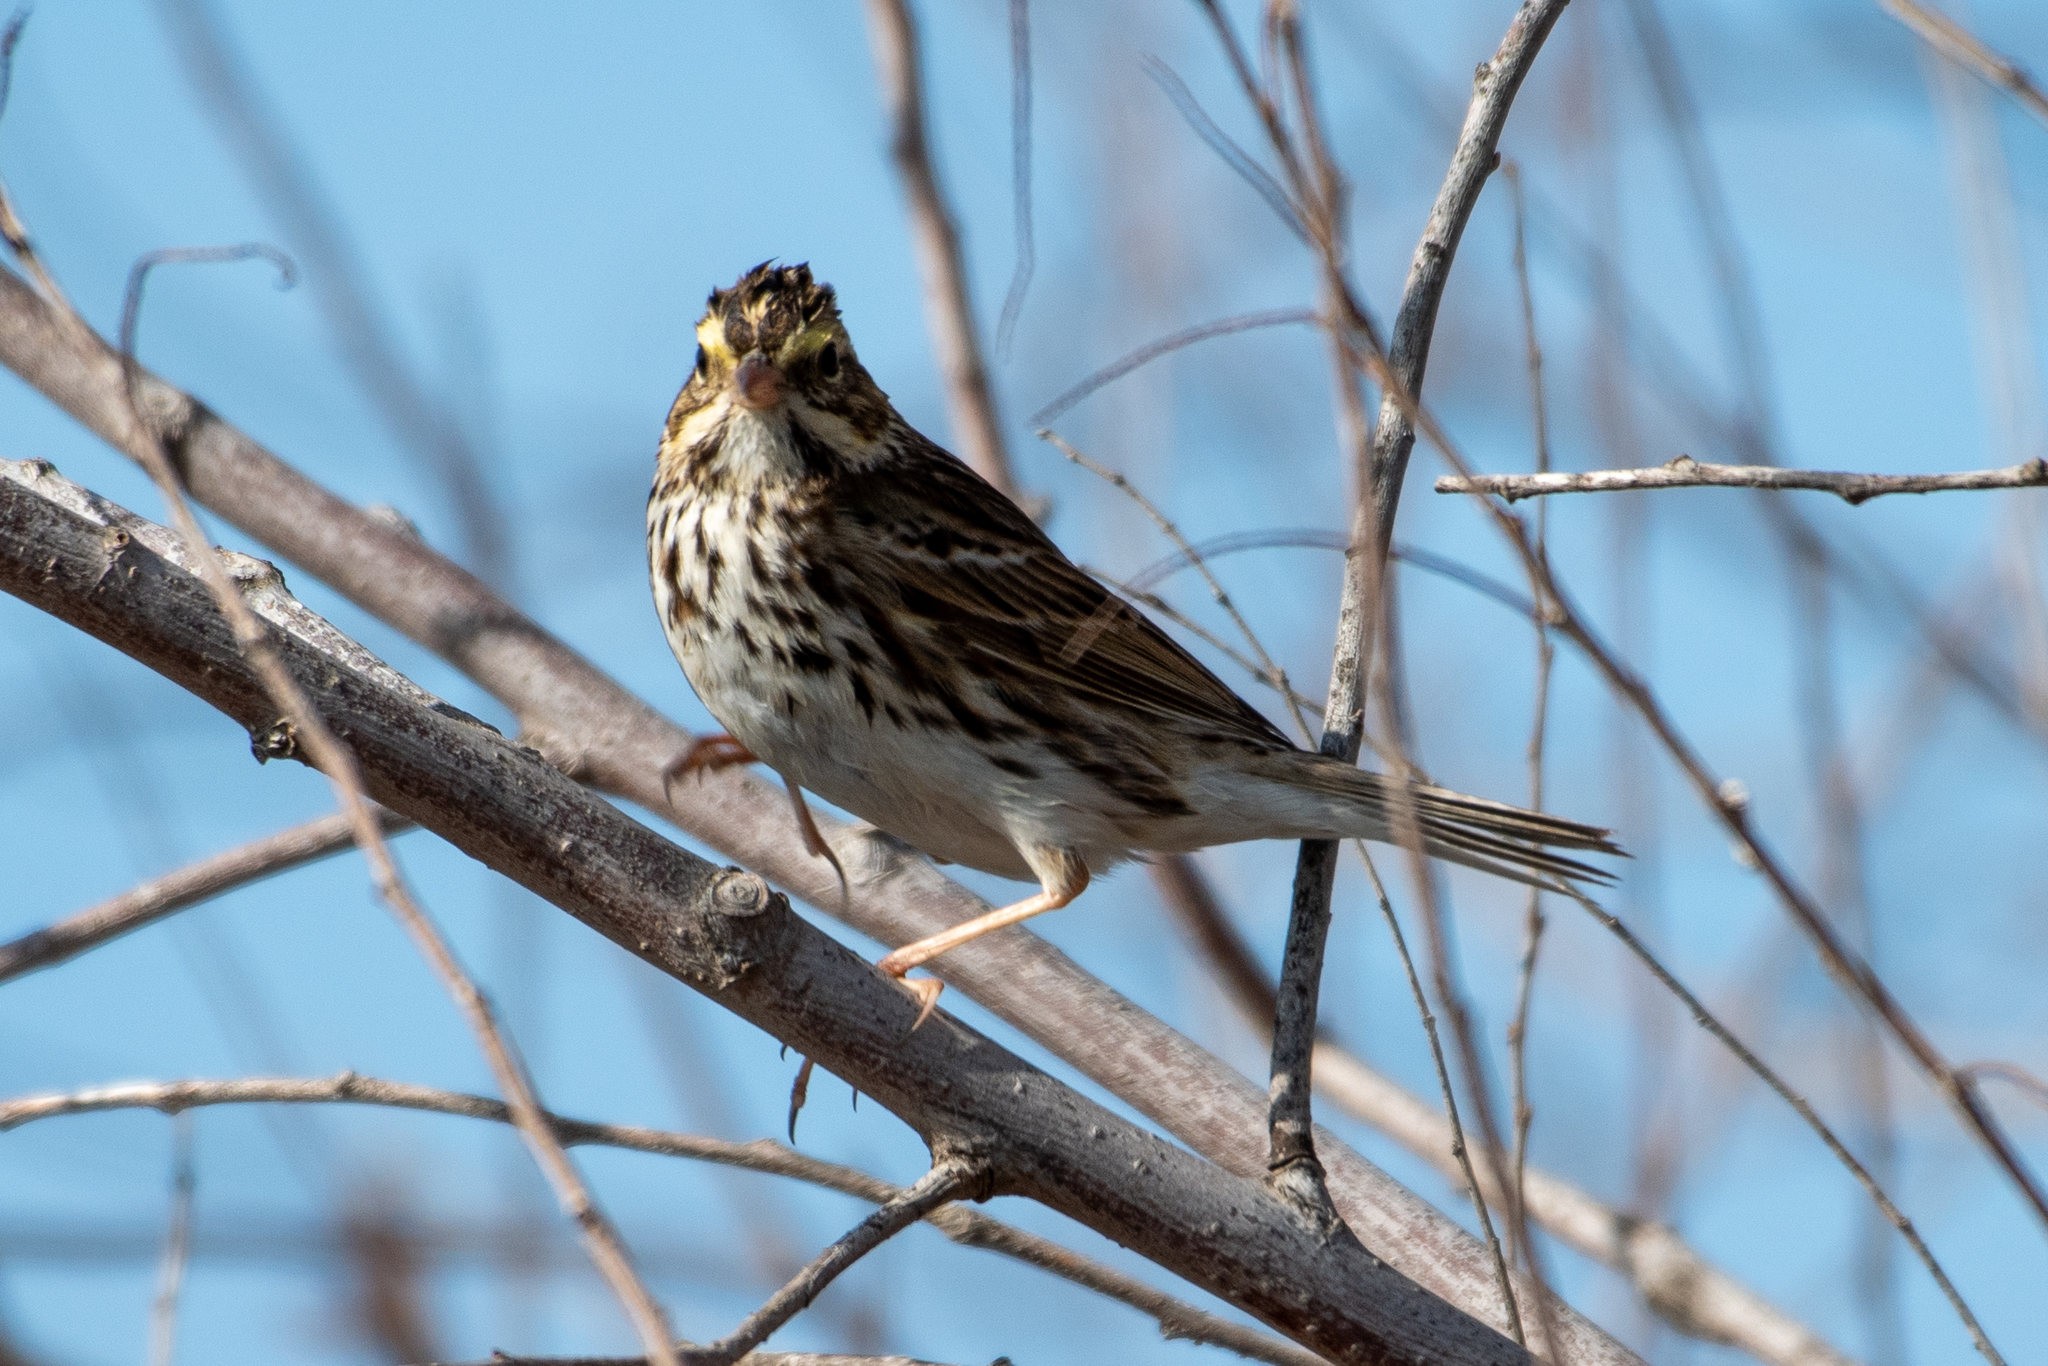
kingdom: Animalia
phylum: Chordata
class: Aves
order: Passeriformes
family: Passerellidae
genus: Passerculus
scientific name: Passerculus sandwichensis
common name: Savannah sparrow
